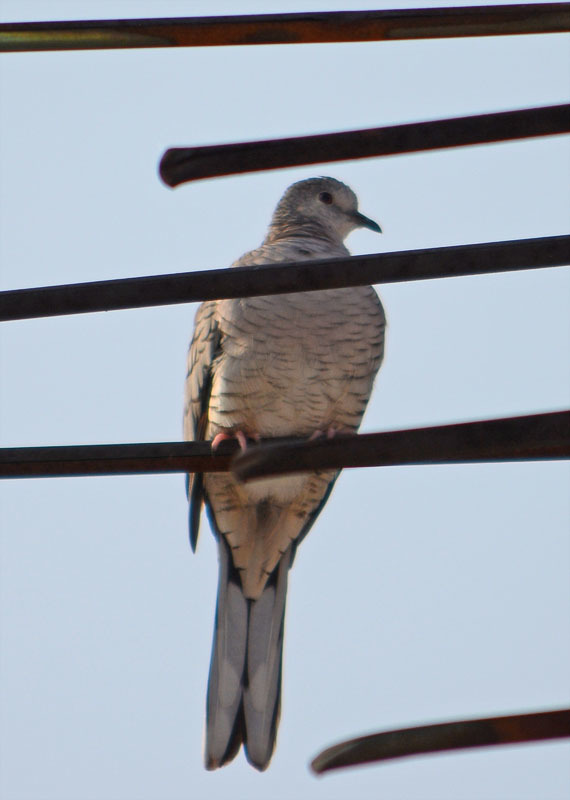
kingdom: Animalia
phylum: Chordata
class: Aves
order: Columbiformes
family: Columbidae
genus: Columbina
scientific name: Columbina inca
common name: Inca dove
